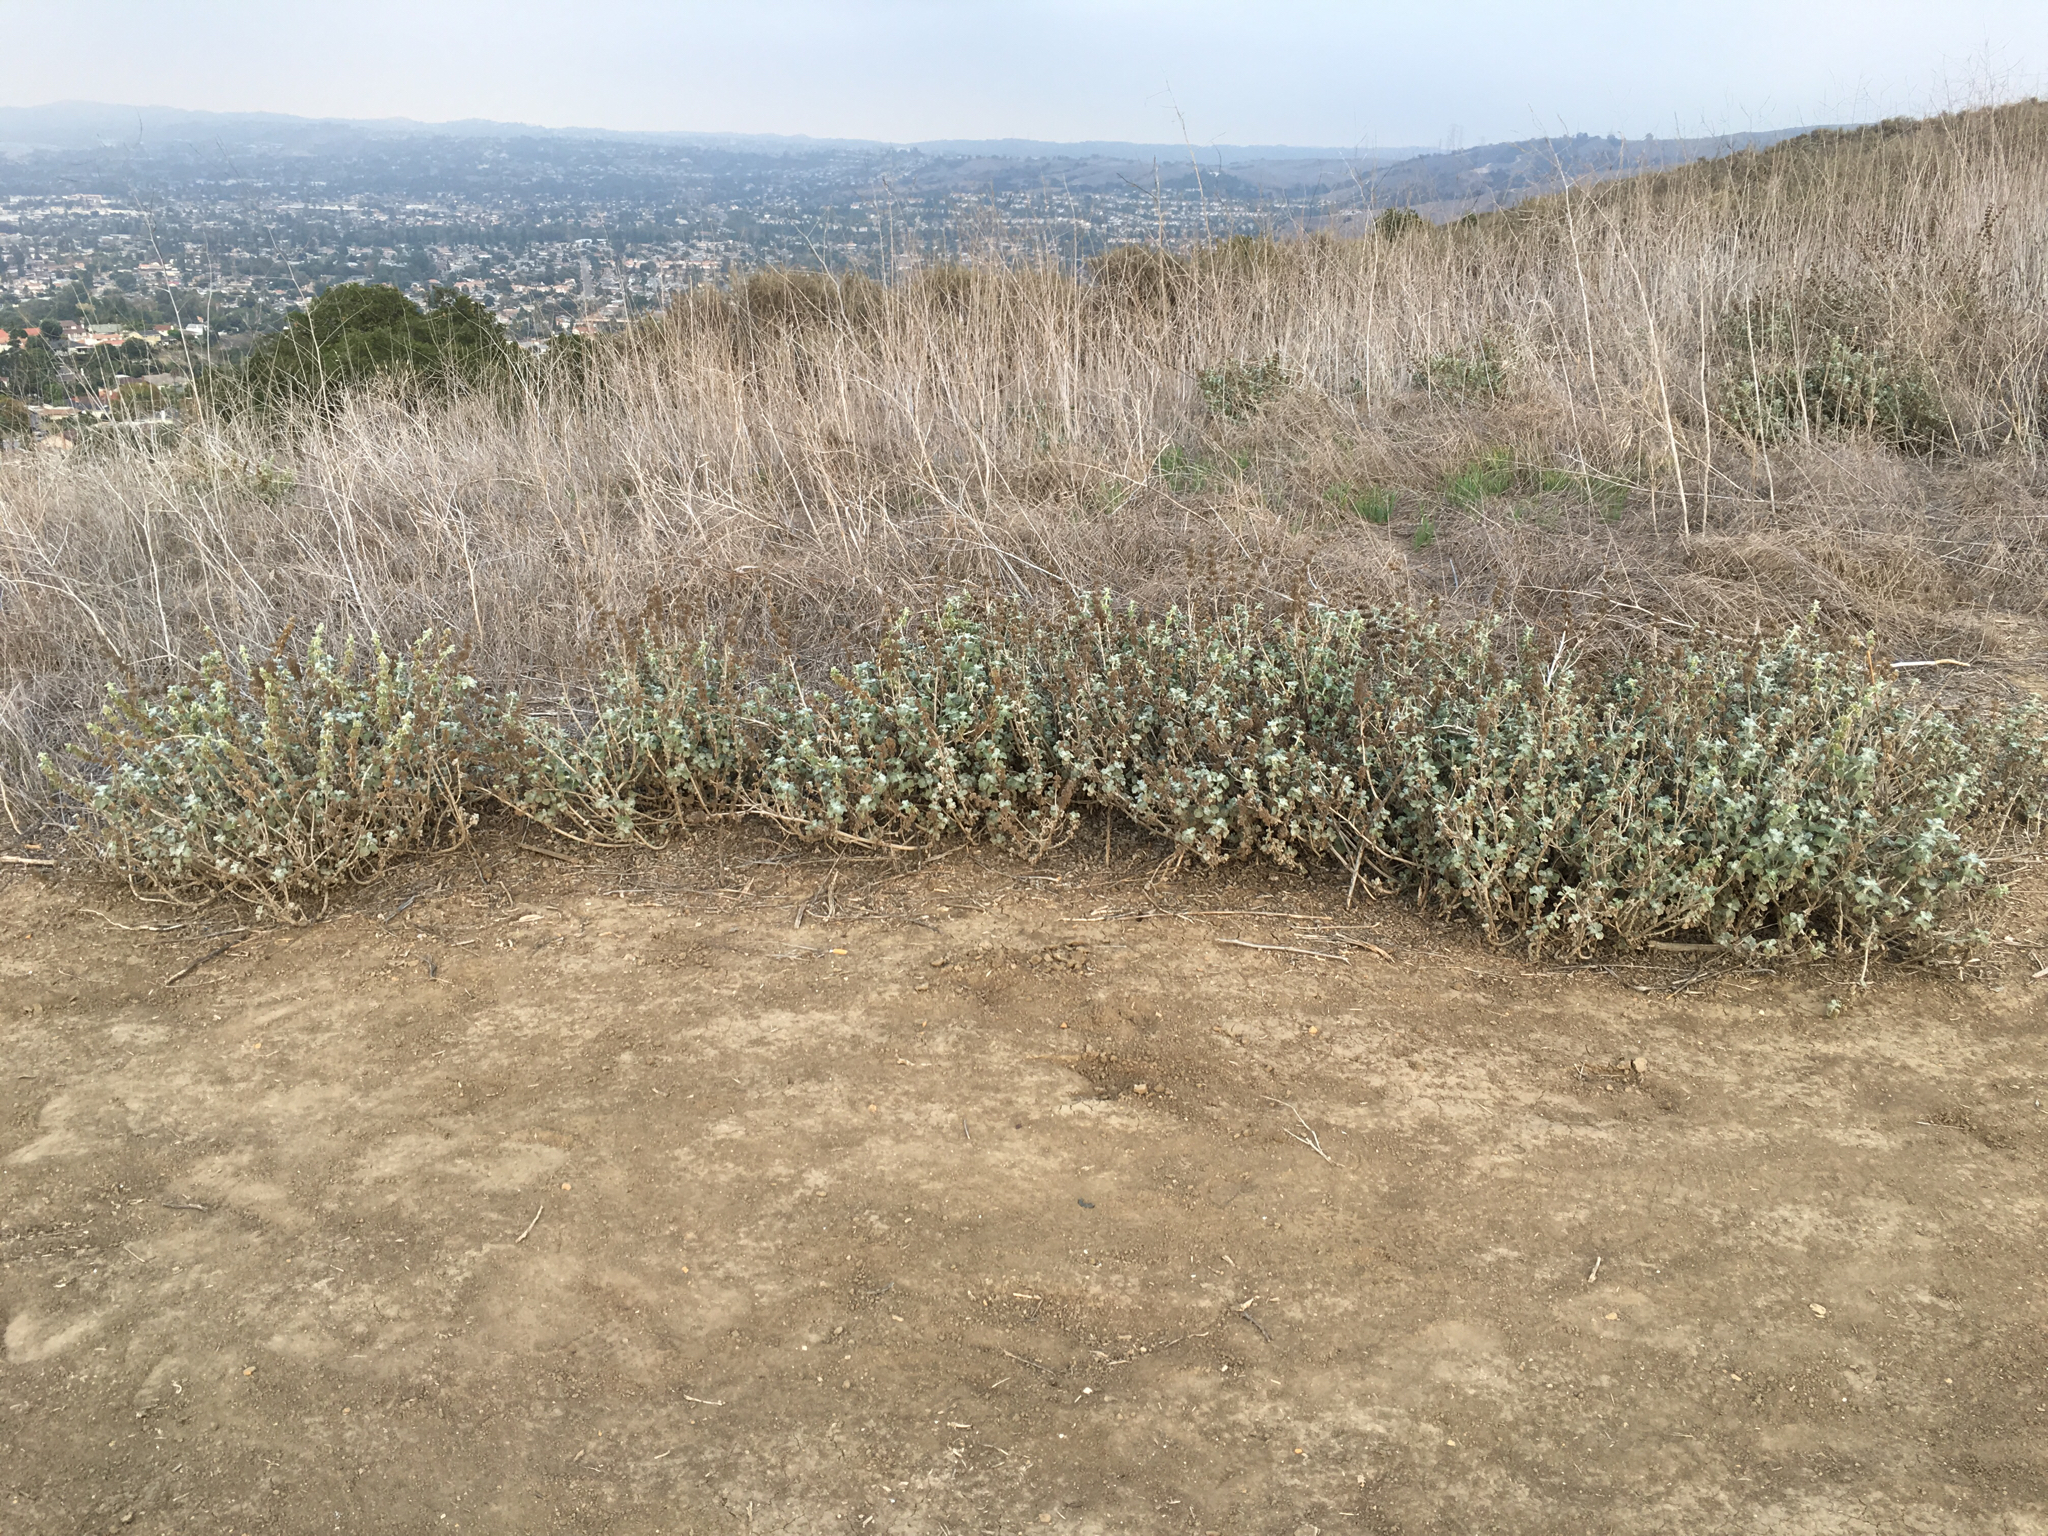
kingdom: Plantae
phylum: Tracheophyta
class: Magnoliopsida
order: Lamiales
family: Lamiaceae
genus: Marrubium
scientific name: Marrubium vulgare
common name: Horehound
